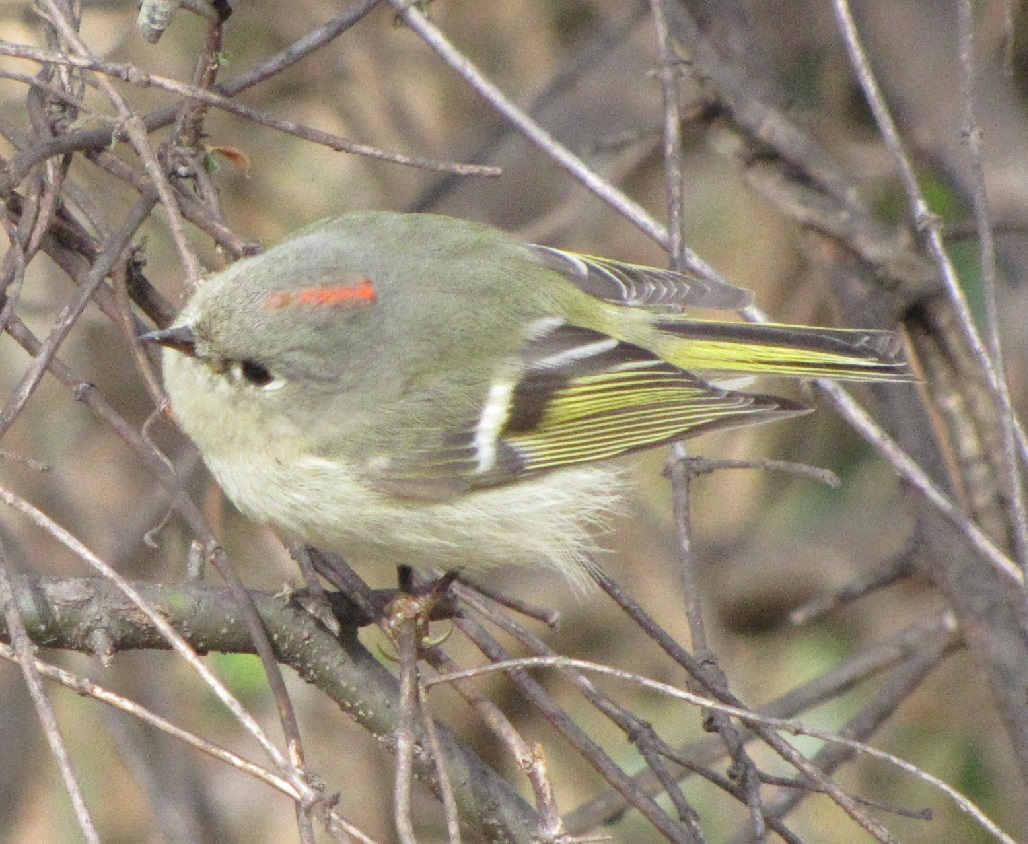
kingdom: Animalia
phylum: Chordata
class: Aves
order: Passeriformes
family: Regulidae
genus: Regulus
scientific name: Regulus calendula
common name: Ruby-crowned kinglet
